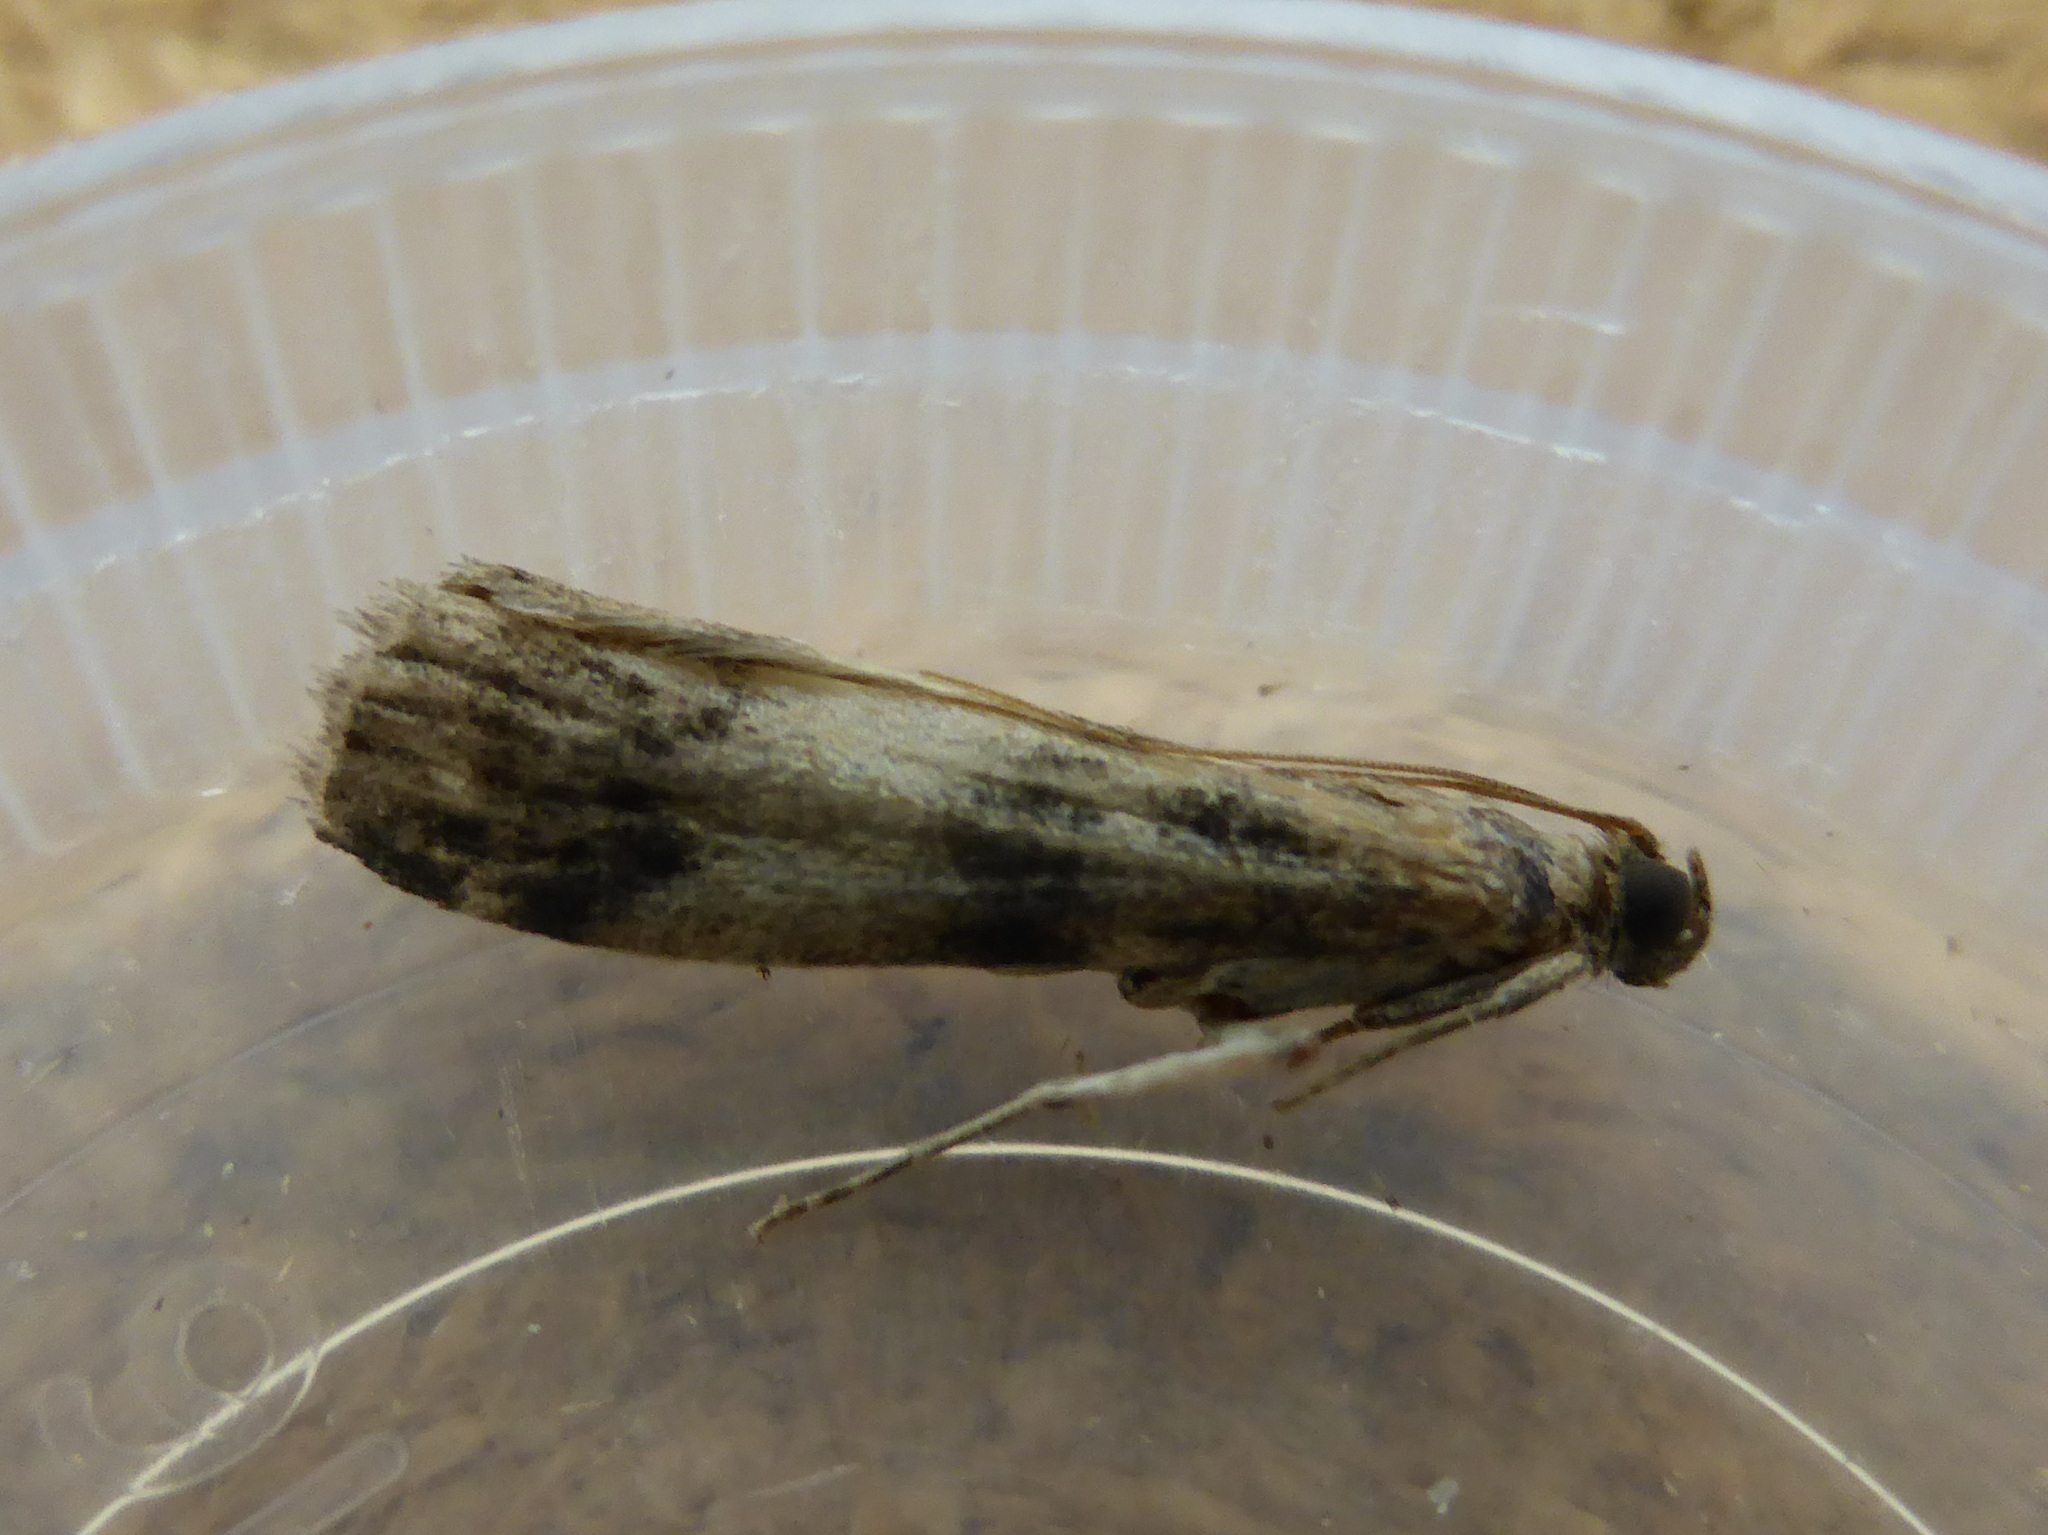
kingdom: Animalia
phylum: Arthropoda
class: Insecta
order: Lepidoptera
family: Pyralidae
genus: Euzophera
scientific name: Euzophera pinguis
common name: Ash-bark knot-horn
